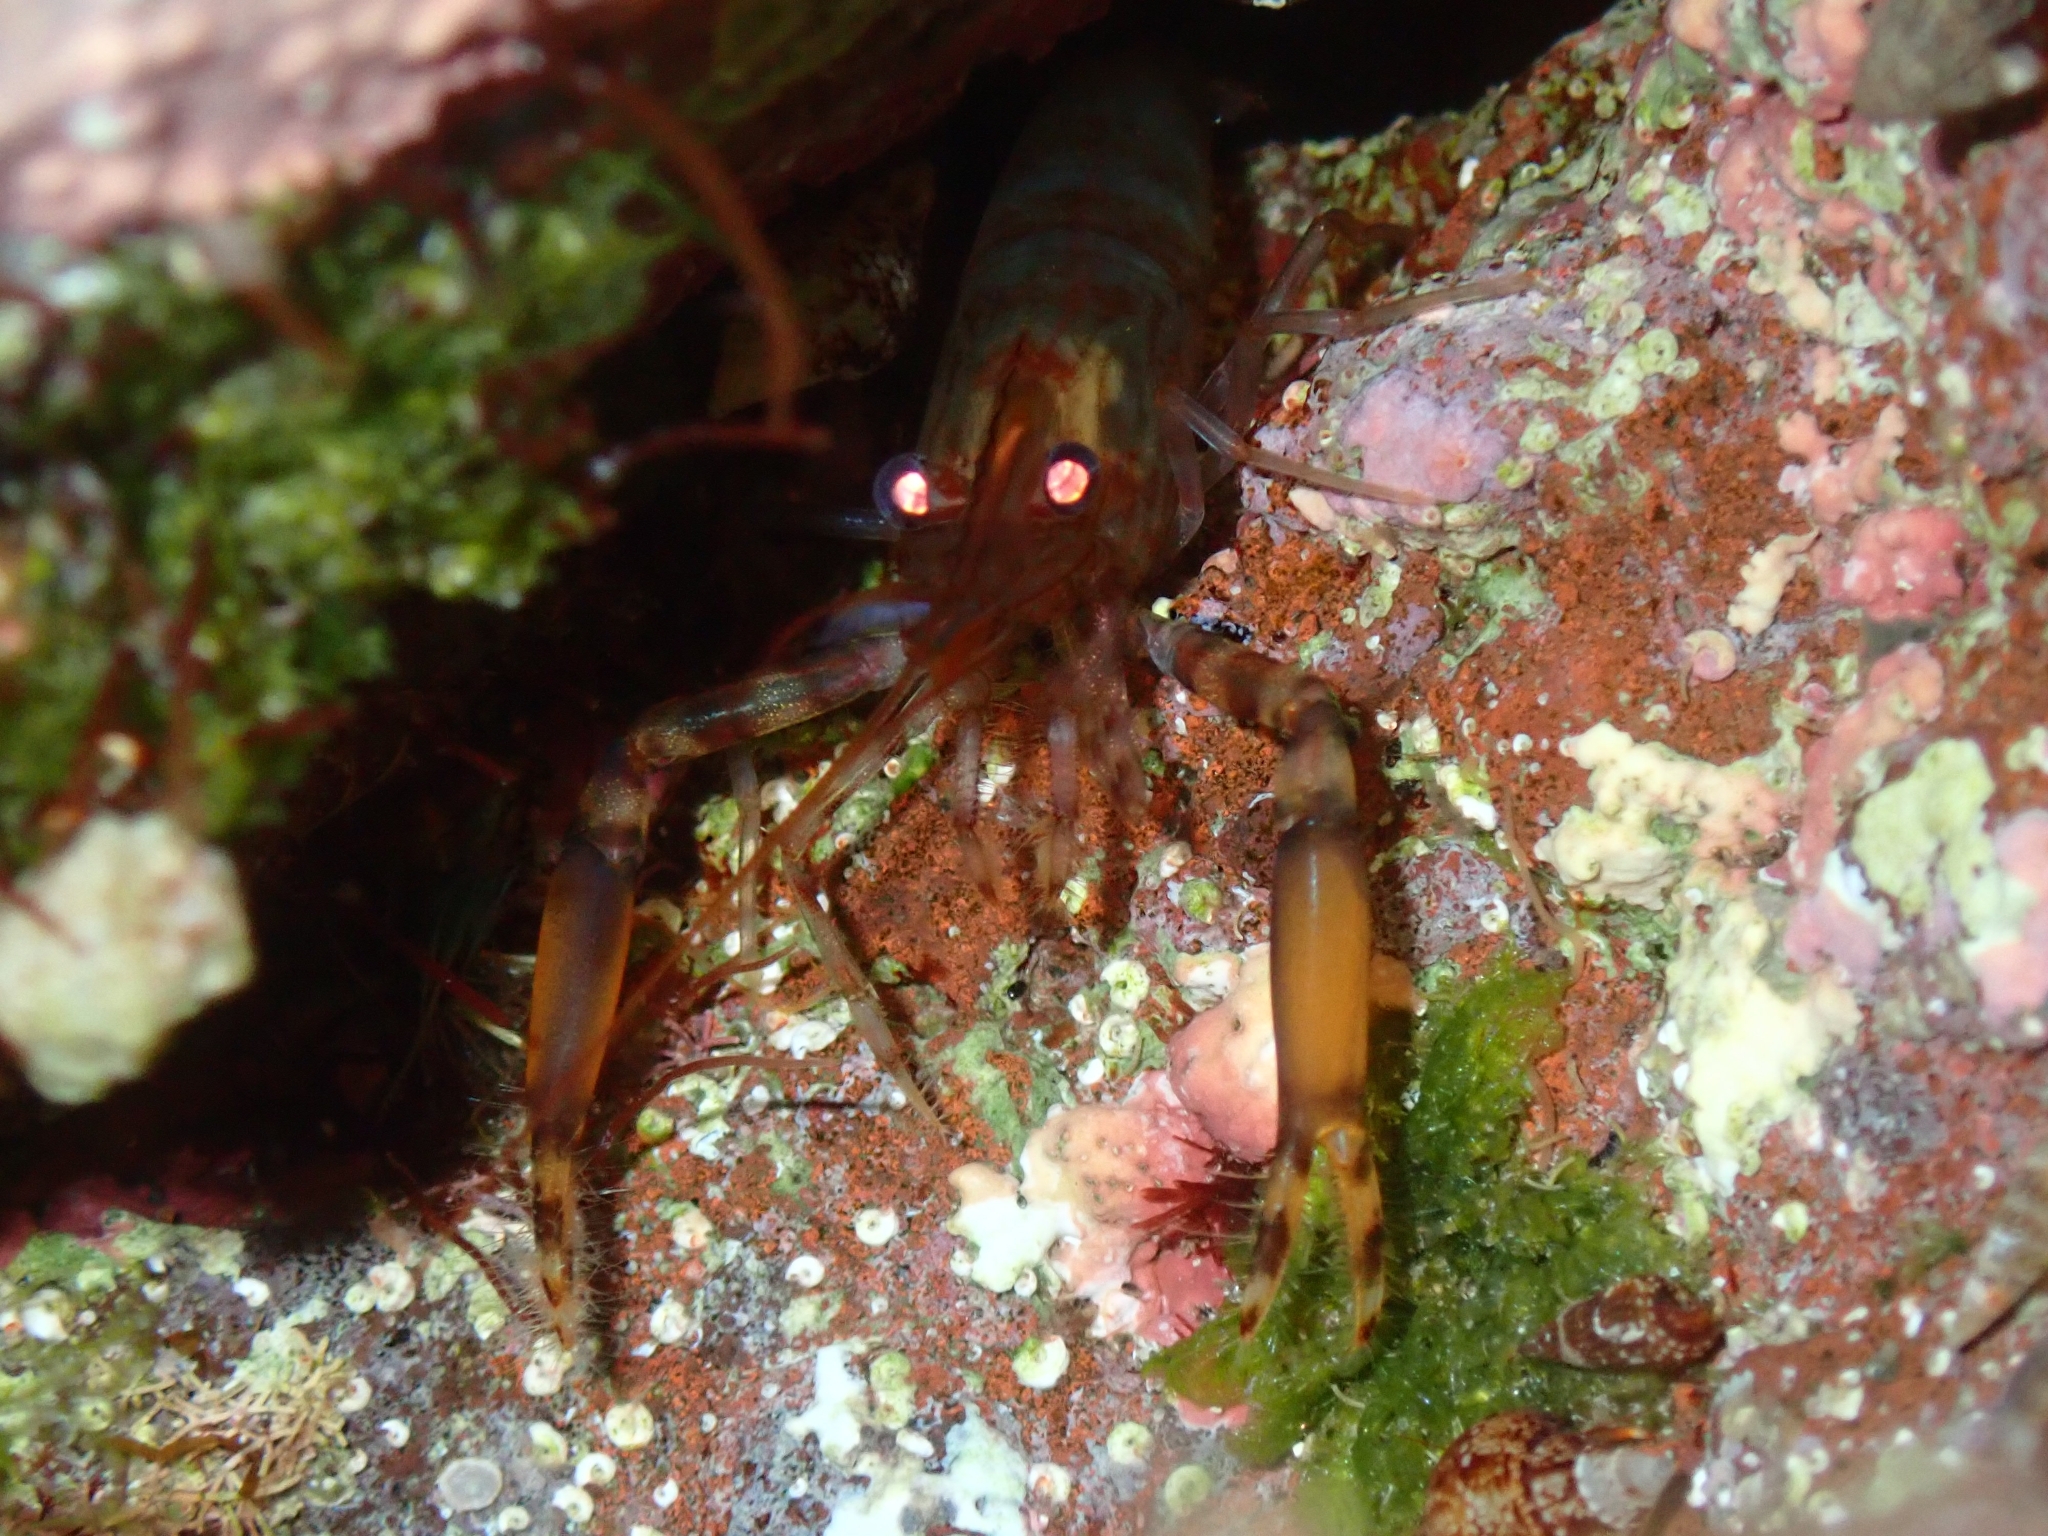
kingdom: Animalia
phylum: Arthropoda
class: Malacostraca
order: Decapoda
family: Palaemonidae
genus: Brachycarpus
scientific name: Brachycarpus biunguiculatus
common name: Two-clawed shrimp
